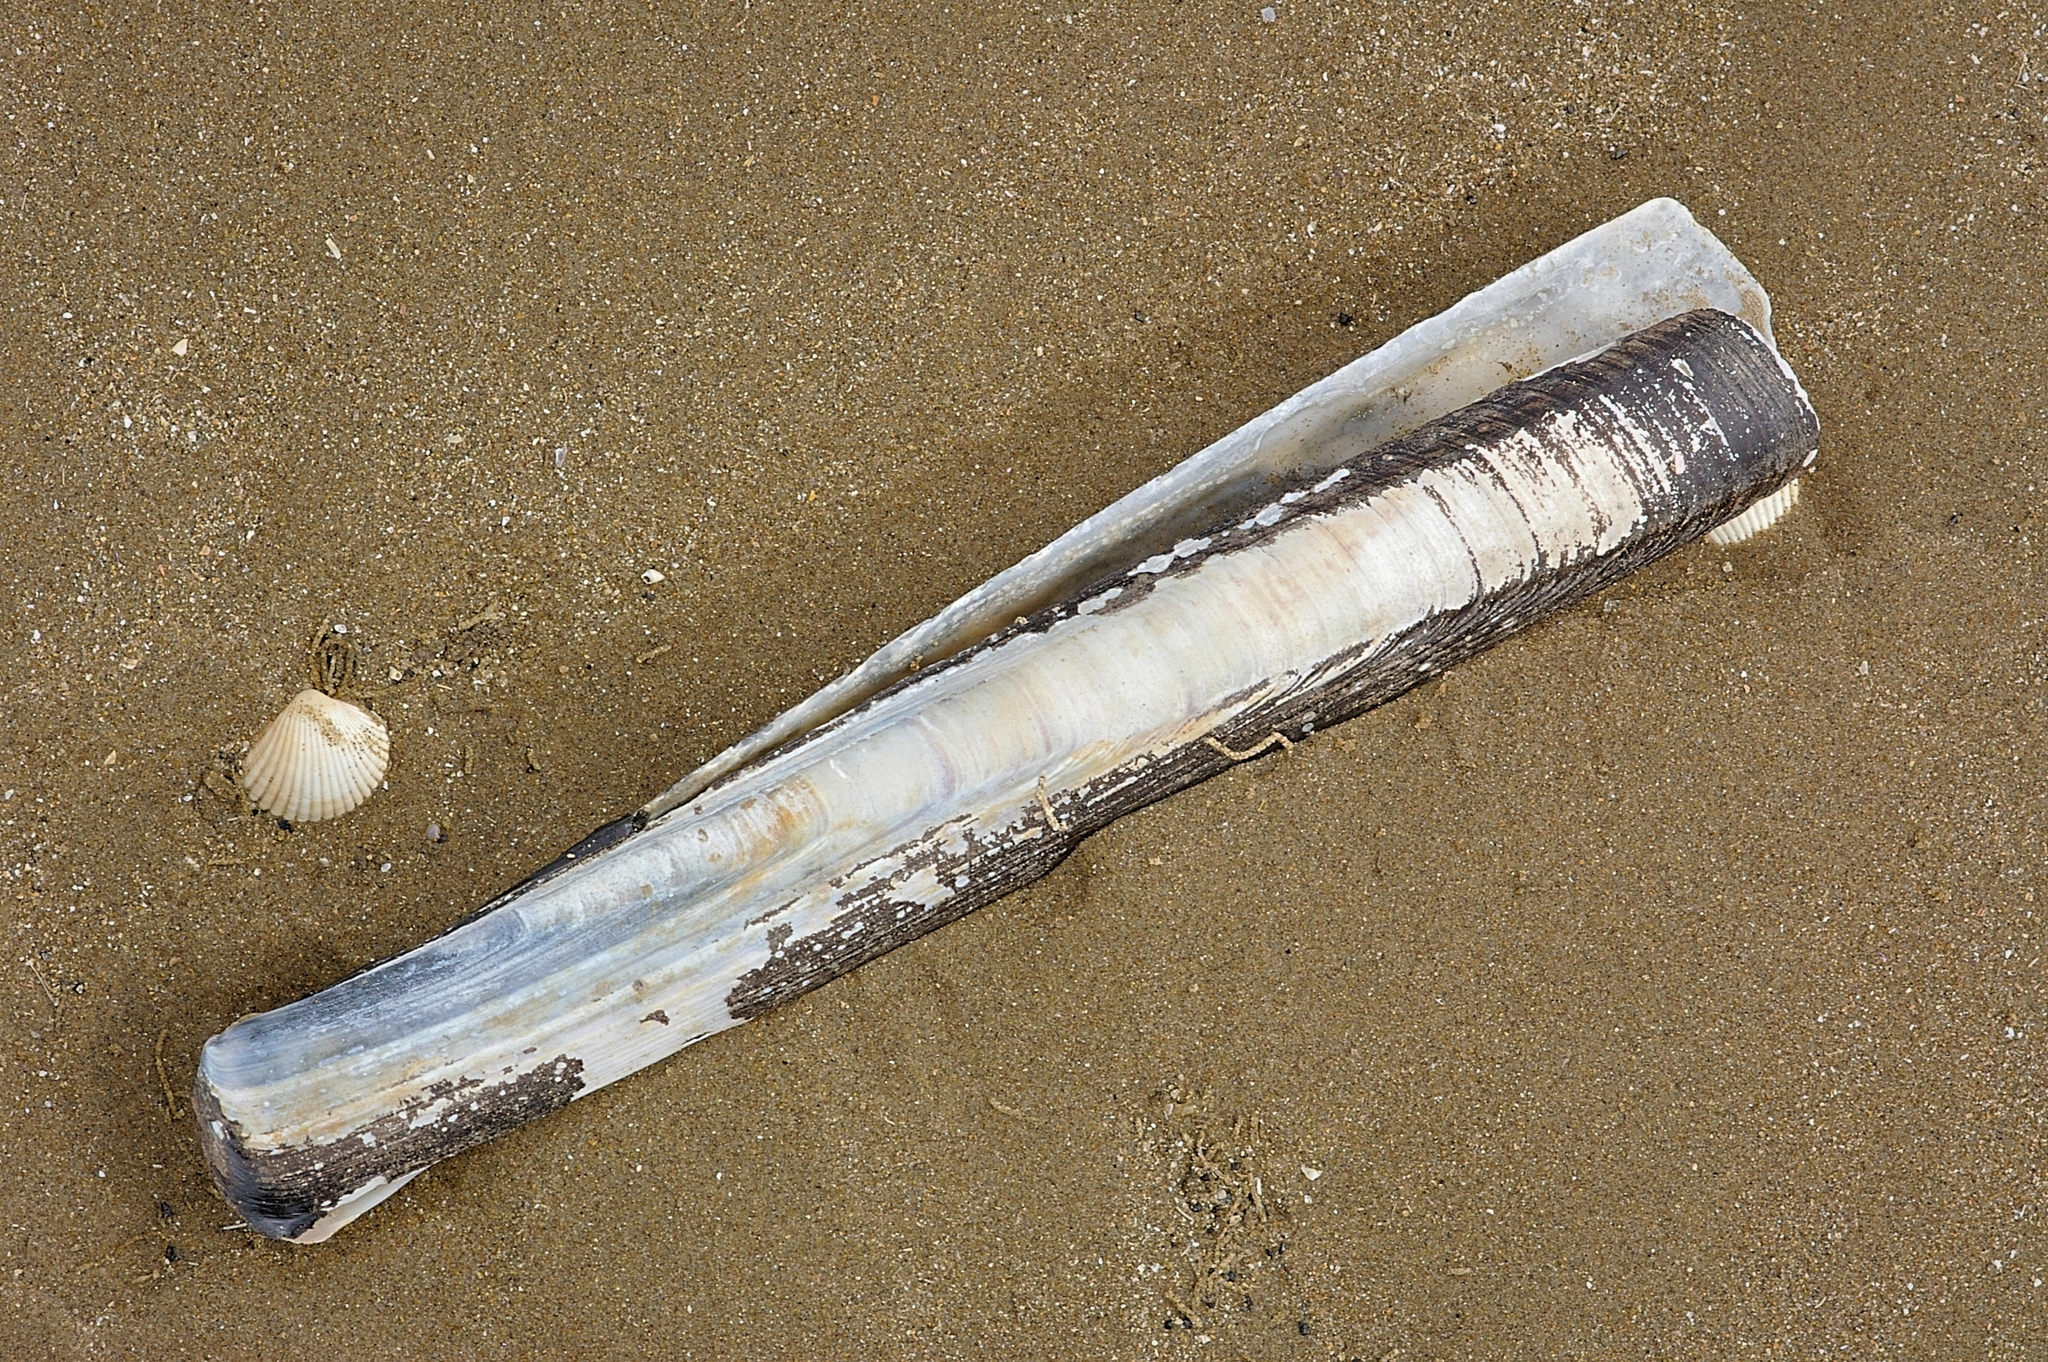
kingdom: Animalia
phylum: Mollusca
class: Bivalvia
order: Adapedonta
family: Pharidae
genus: Ensis
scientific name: Ensis siliqua
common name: Pod razor shell
